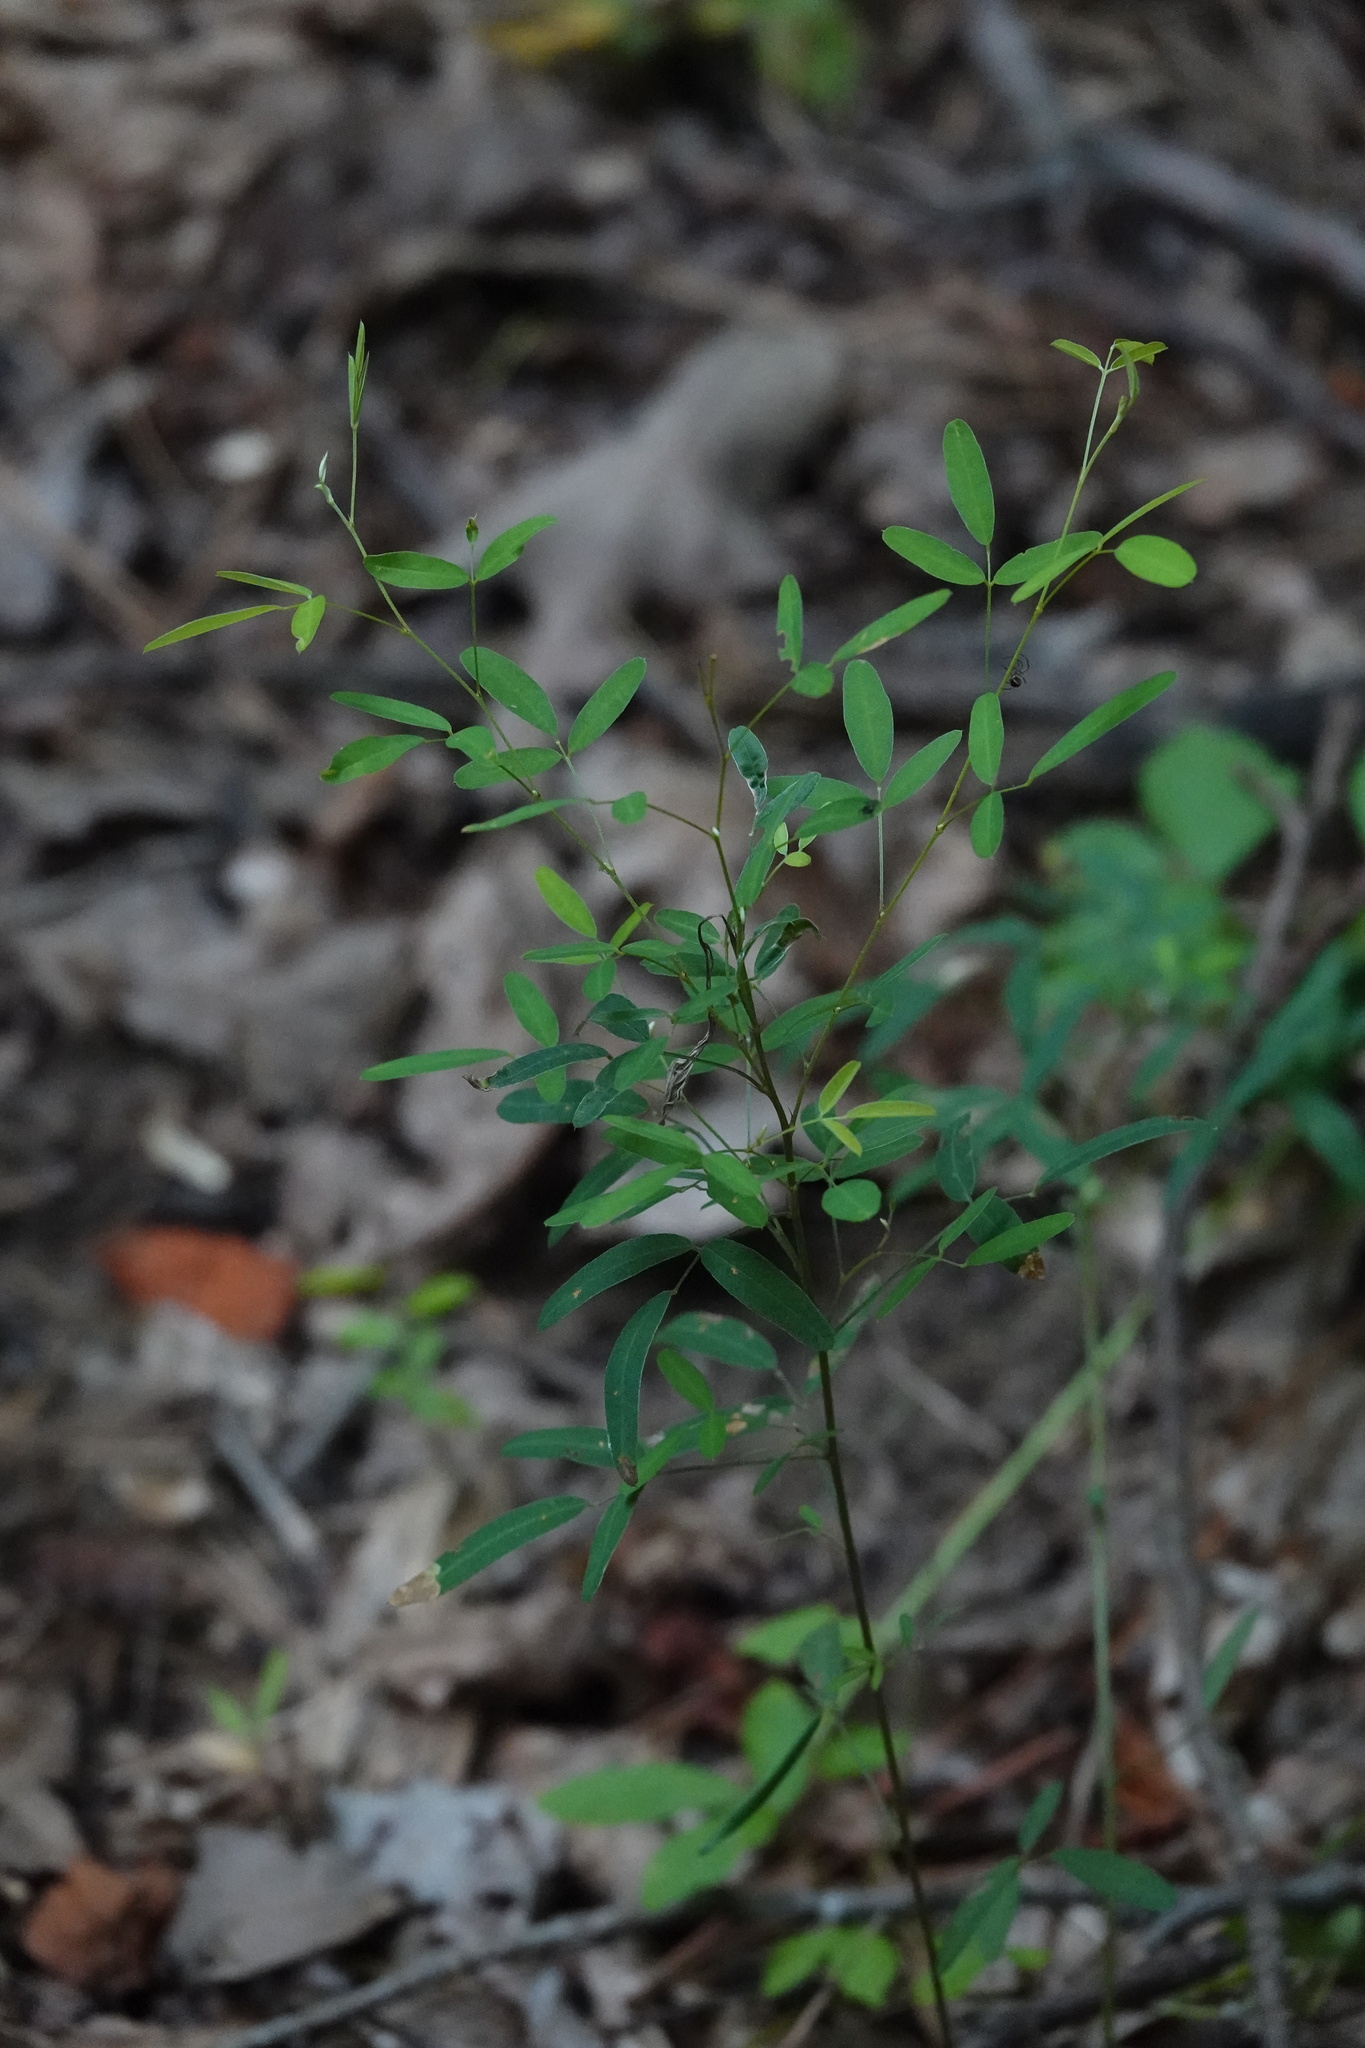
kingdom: Plantae
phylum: Tracheophyta
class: Magnoliopsida
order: Fabales
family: Fabaceae
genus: Lespedeza
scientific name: Lespedeza cuneata
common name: Chinese bush-clover
